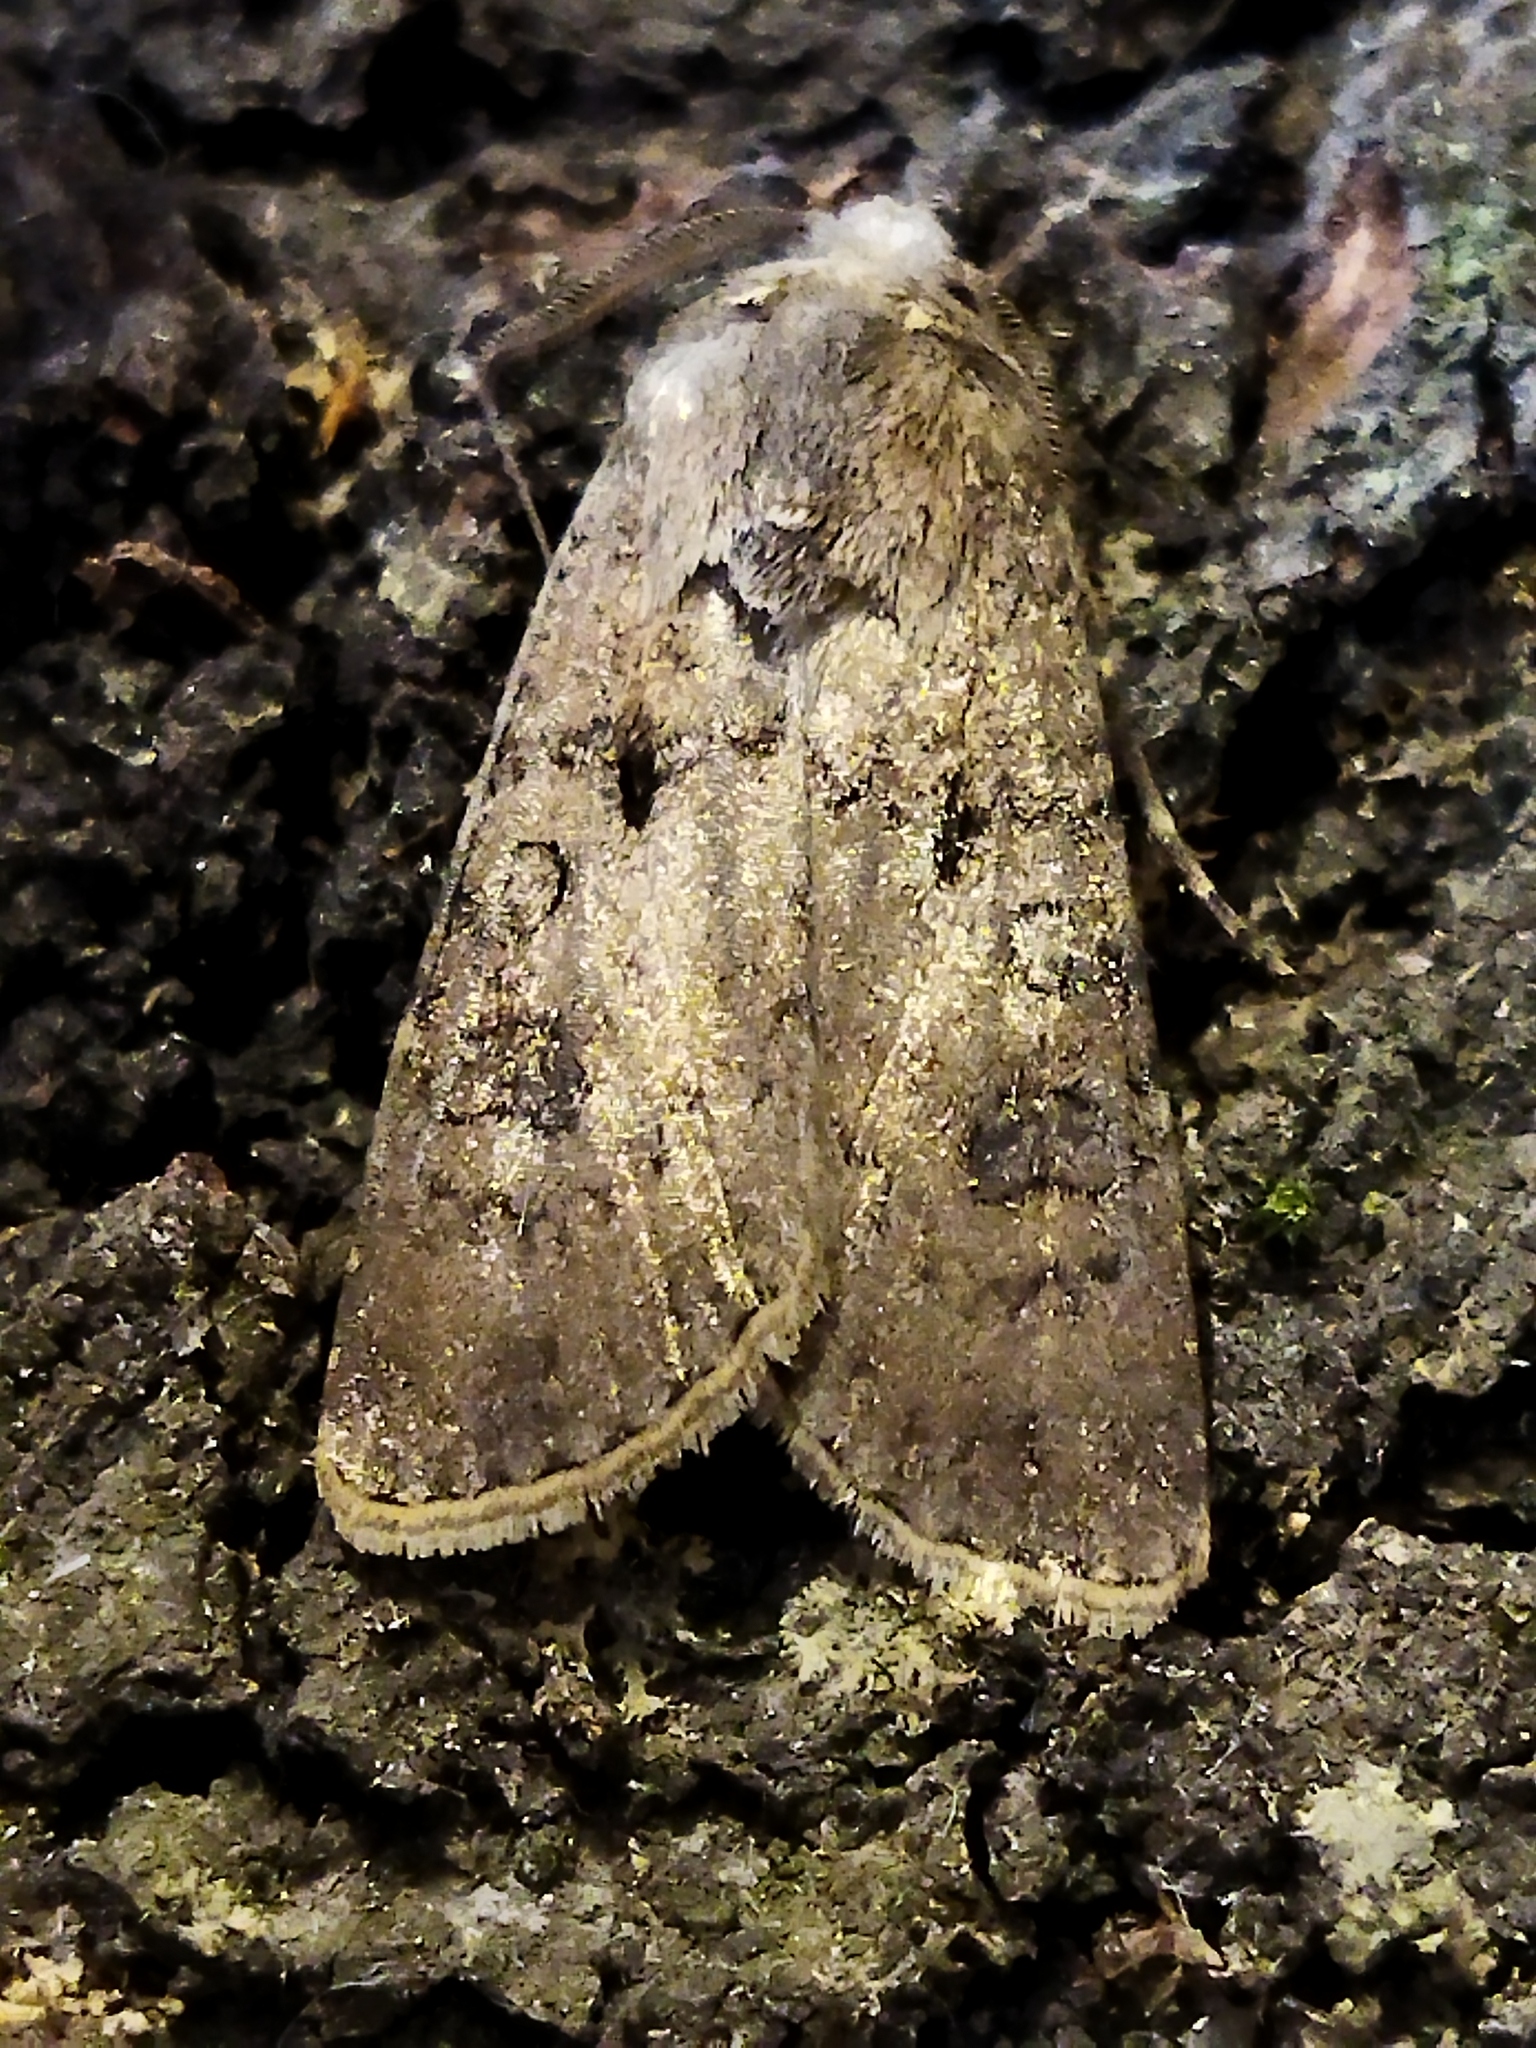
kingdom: Animalia
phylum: Arthropoda
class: Insecta
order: Lepidoptera
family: Noctuidae
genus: Agrotis
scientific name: Agrotis segetum
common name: Turnip moth
